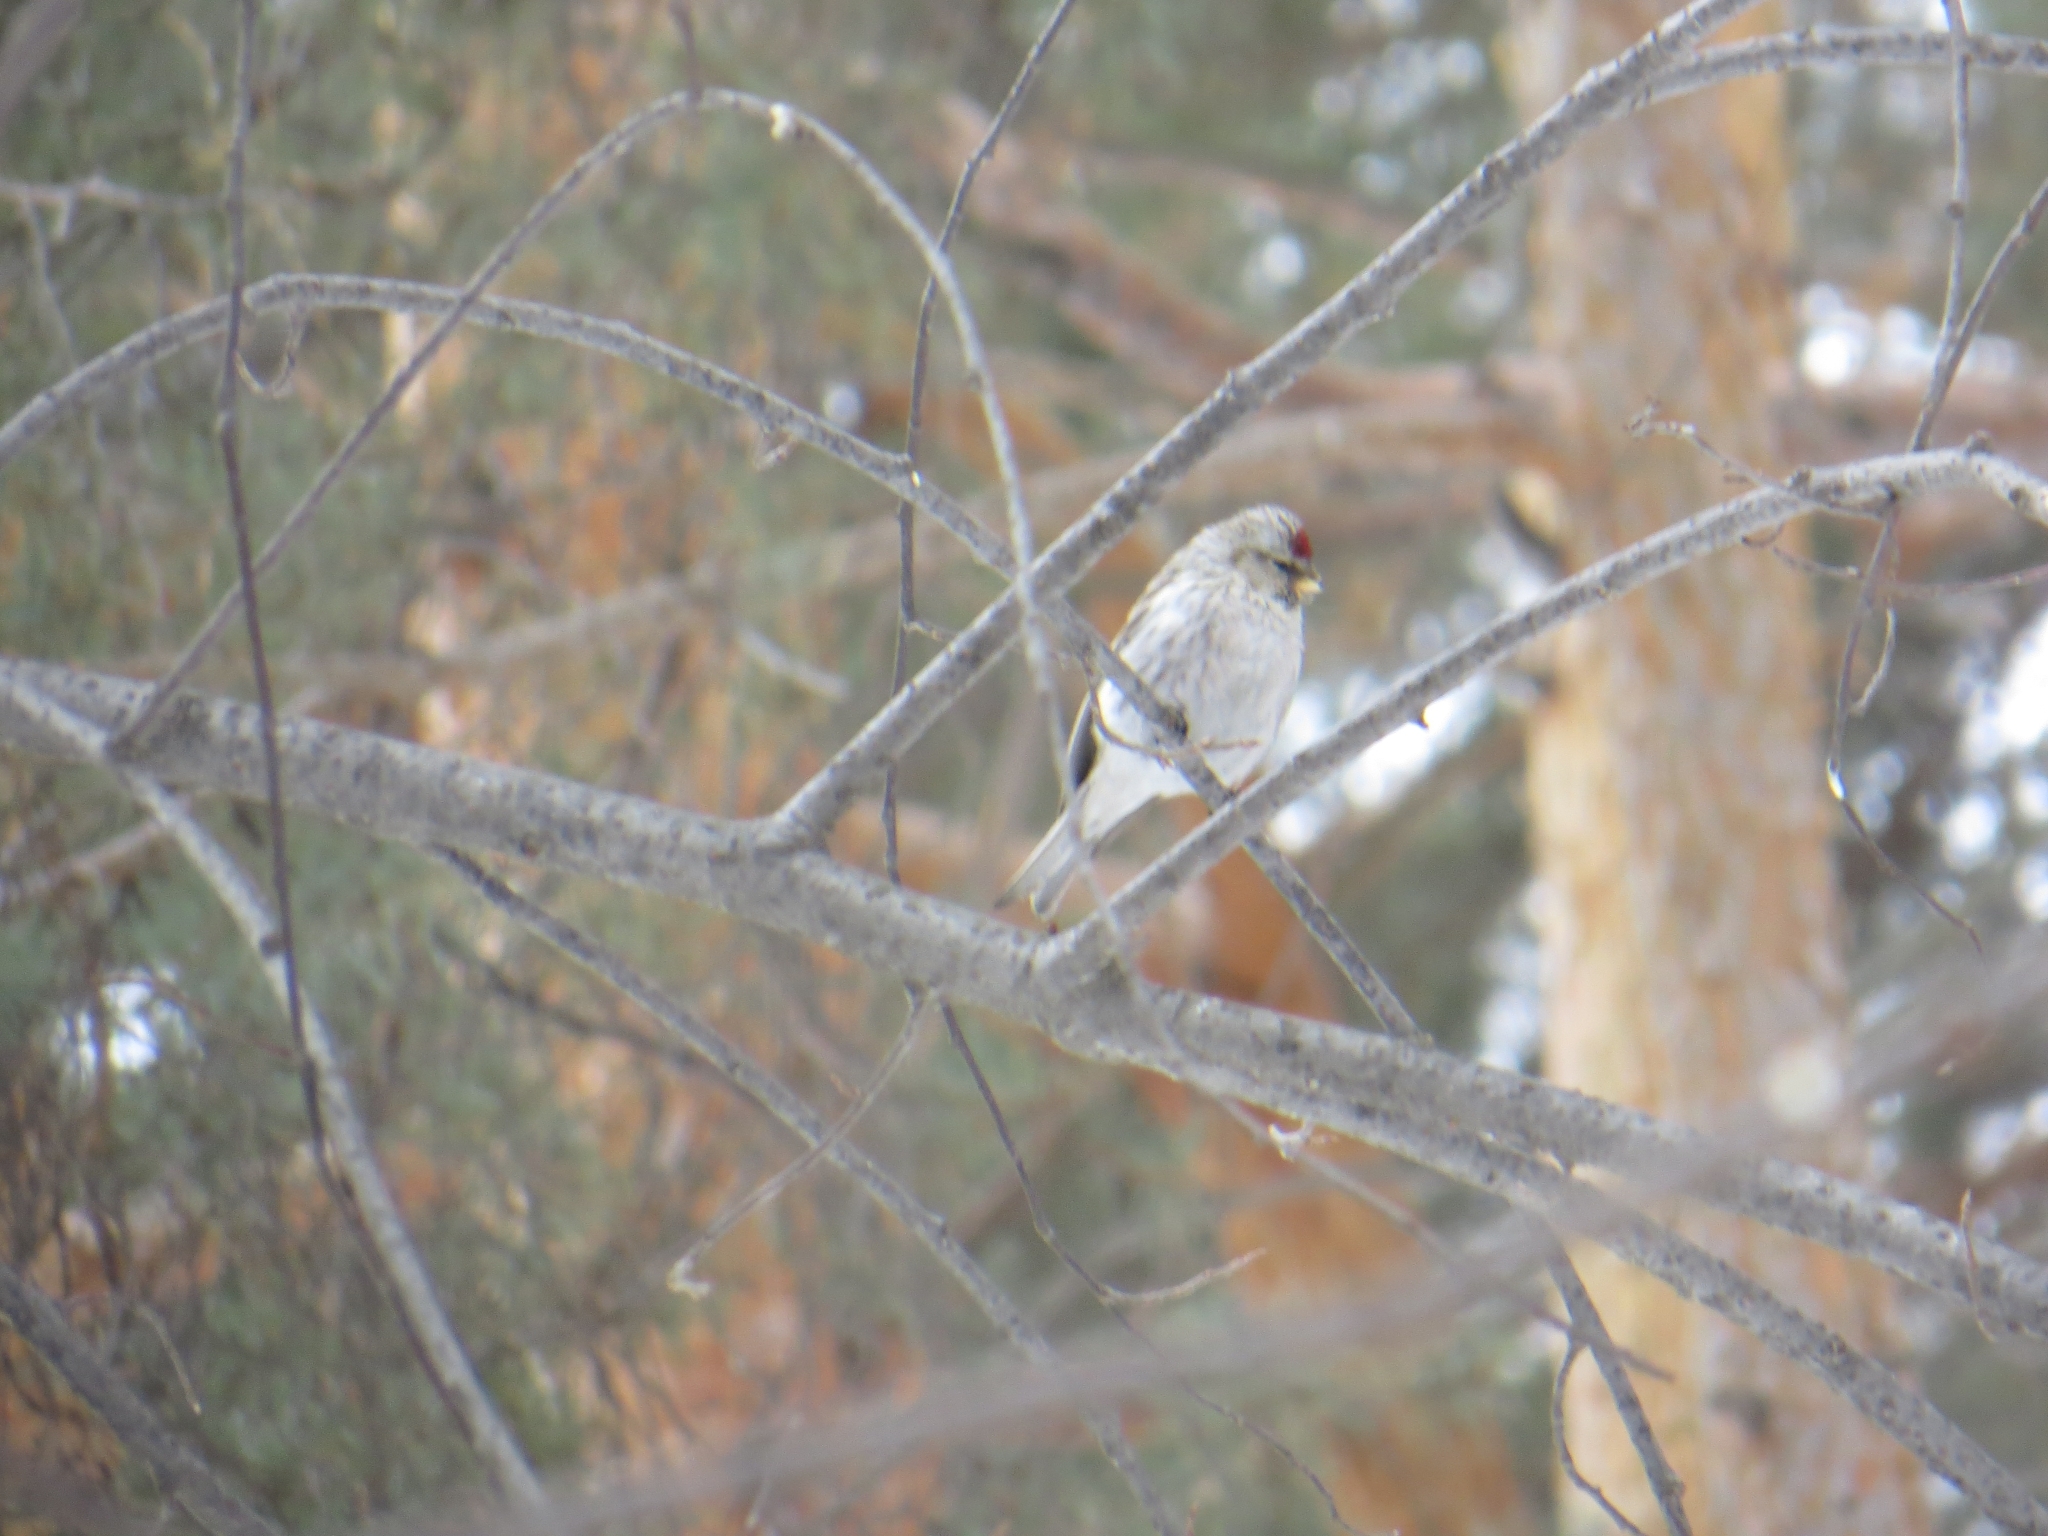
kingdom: Animalia
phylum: Chordata
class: Aves
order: Passeriformes
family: Fringillidae
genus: Acanthis
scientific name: Acanthis hornemanni
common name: Arctic redpoll
